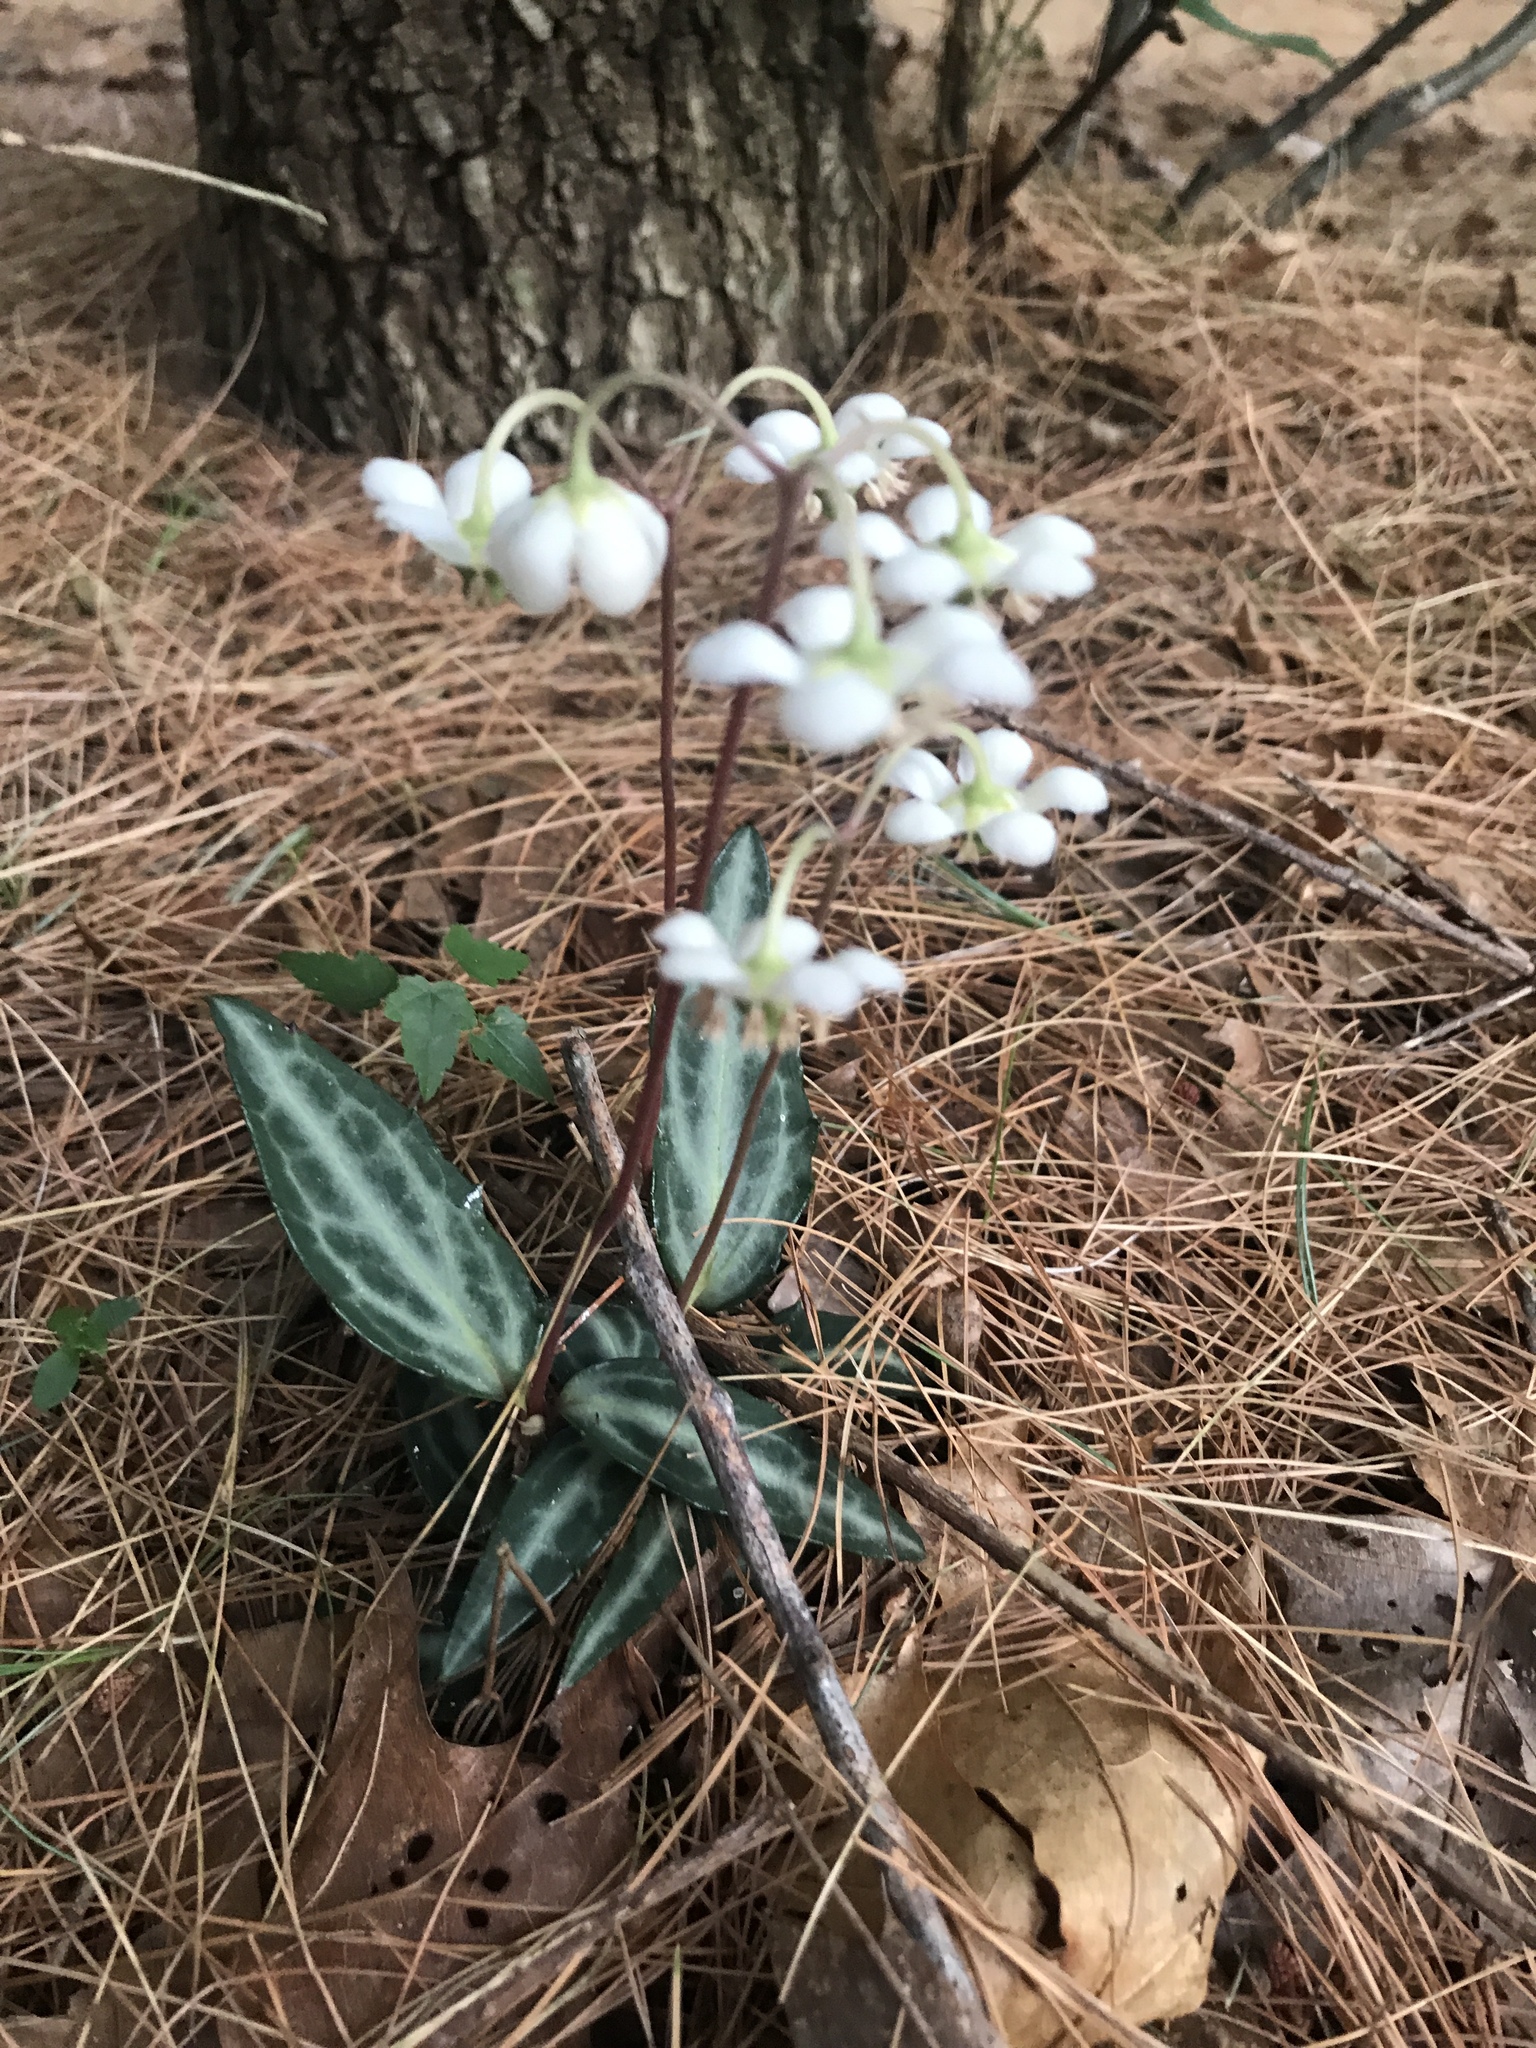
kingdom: Plantae
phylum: Tracheophyta
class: Magnoliopsida
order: Ericales
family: Ericaceae
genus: Chimaphila
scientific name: Chimaphila maculata
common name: Spotted pipsissewa
